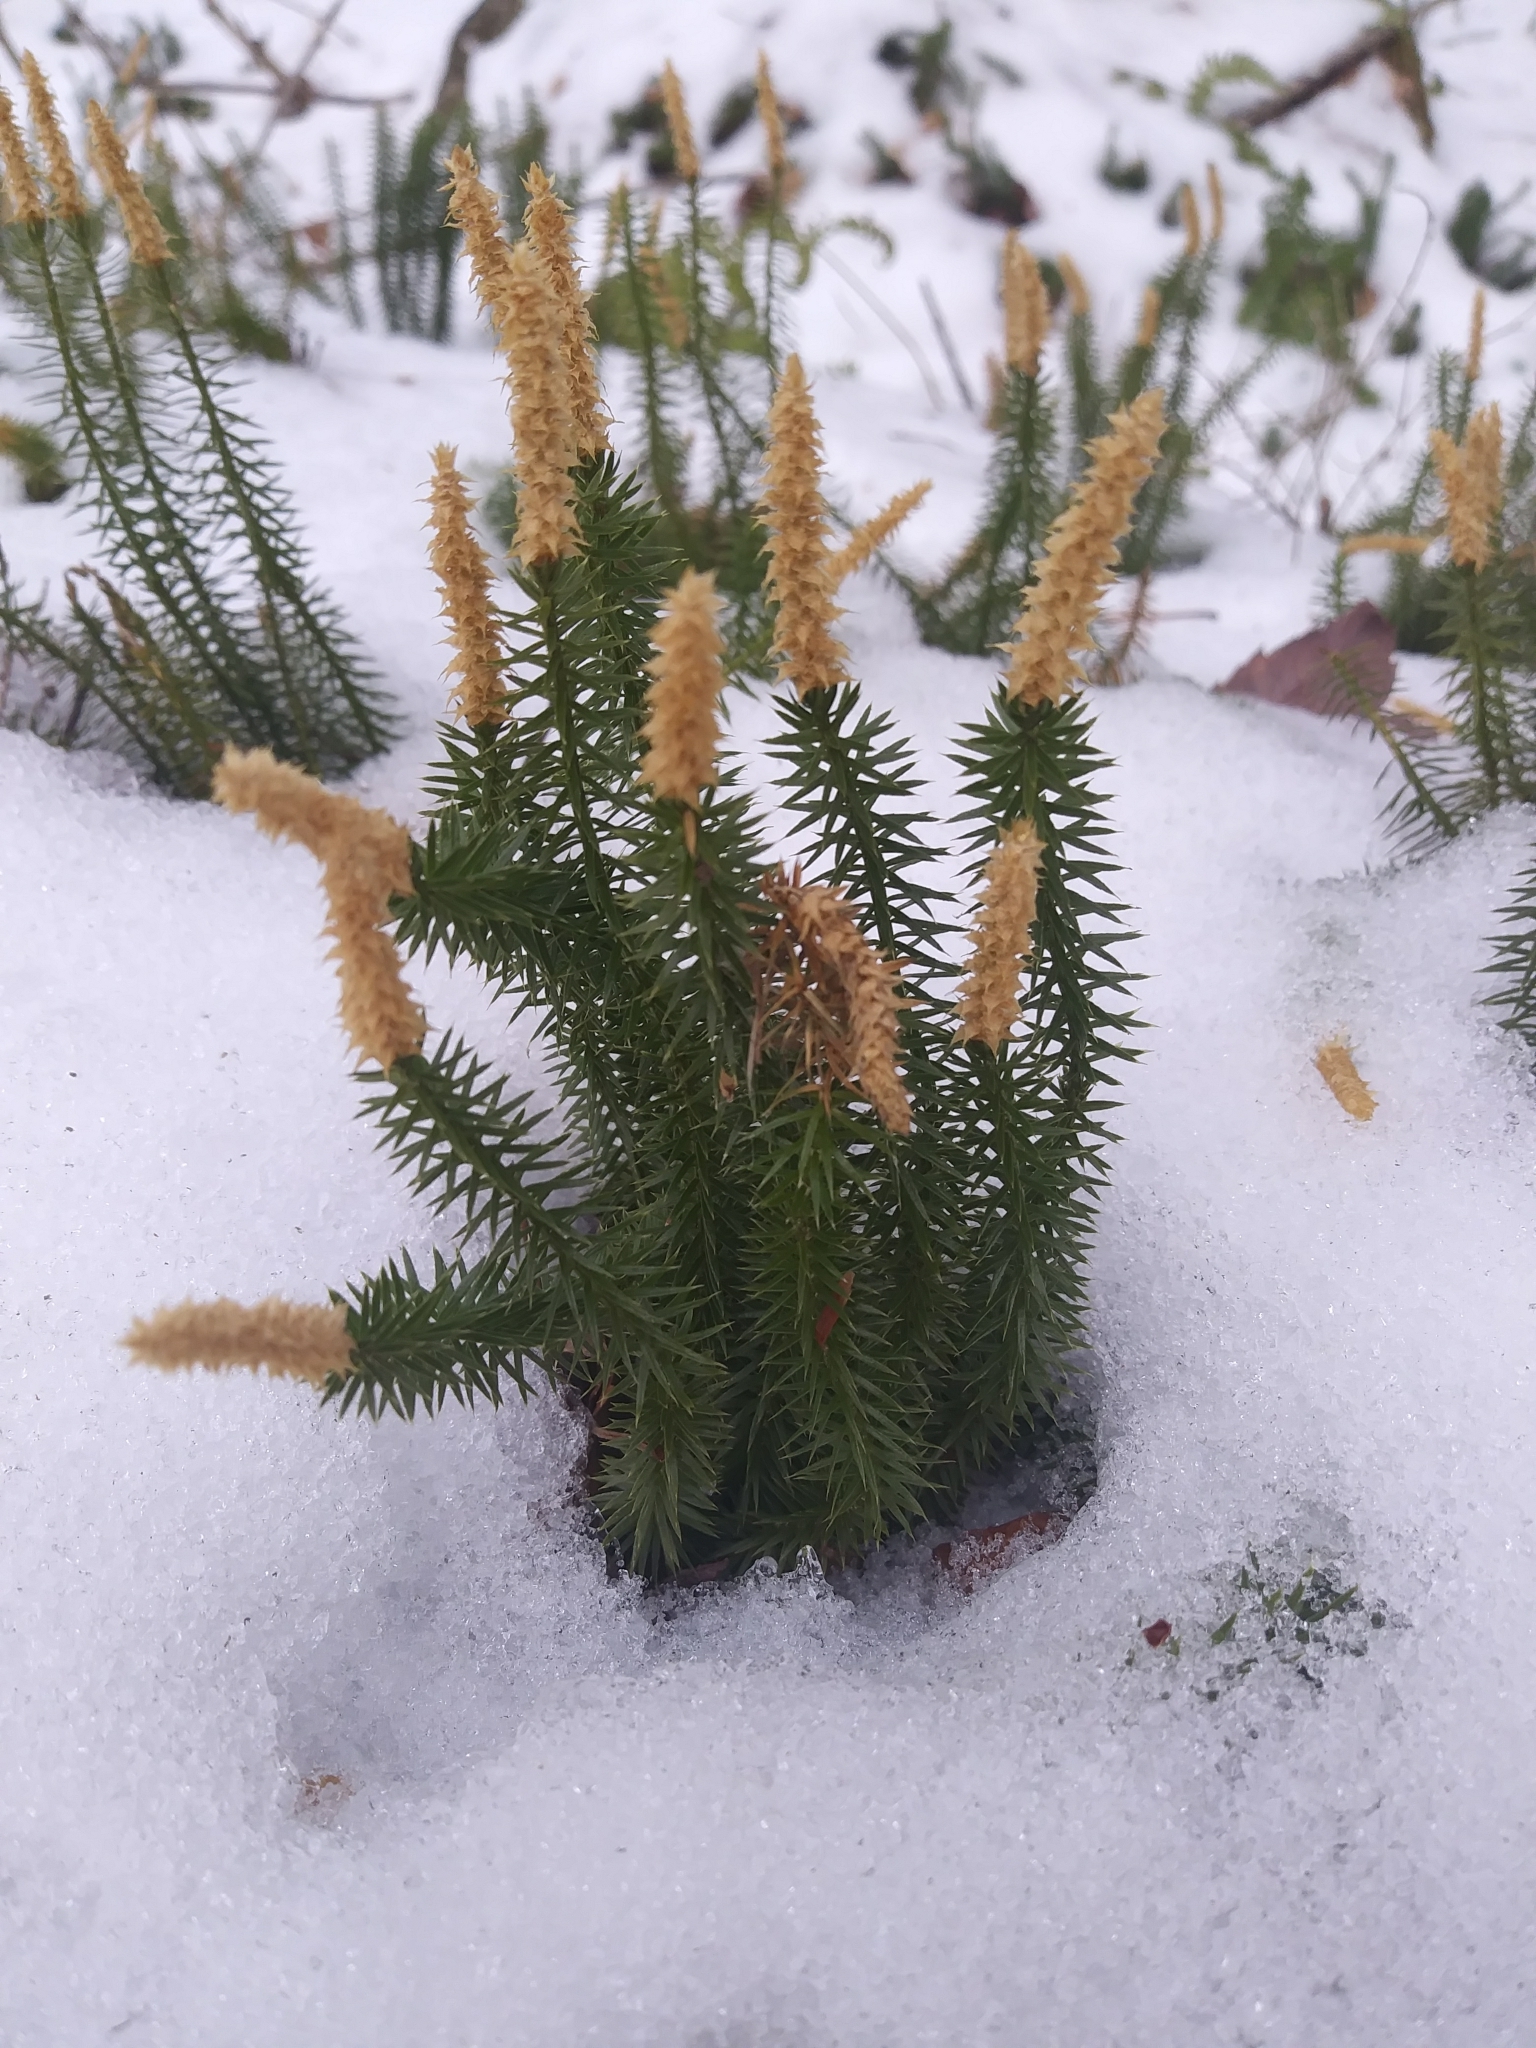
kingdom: Plantae
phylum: Tracheophyta
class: Lycopodiopsida
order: Lycopodiales
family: Lycopodiaceae
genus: Spinulum
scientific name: Spinulum annotinum
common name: Interrupted club-moss
